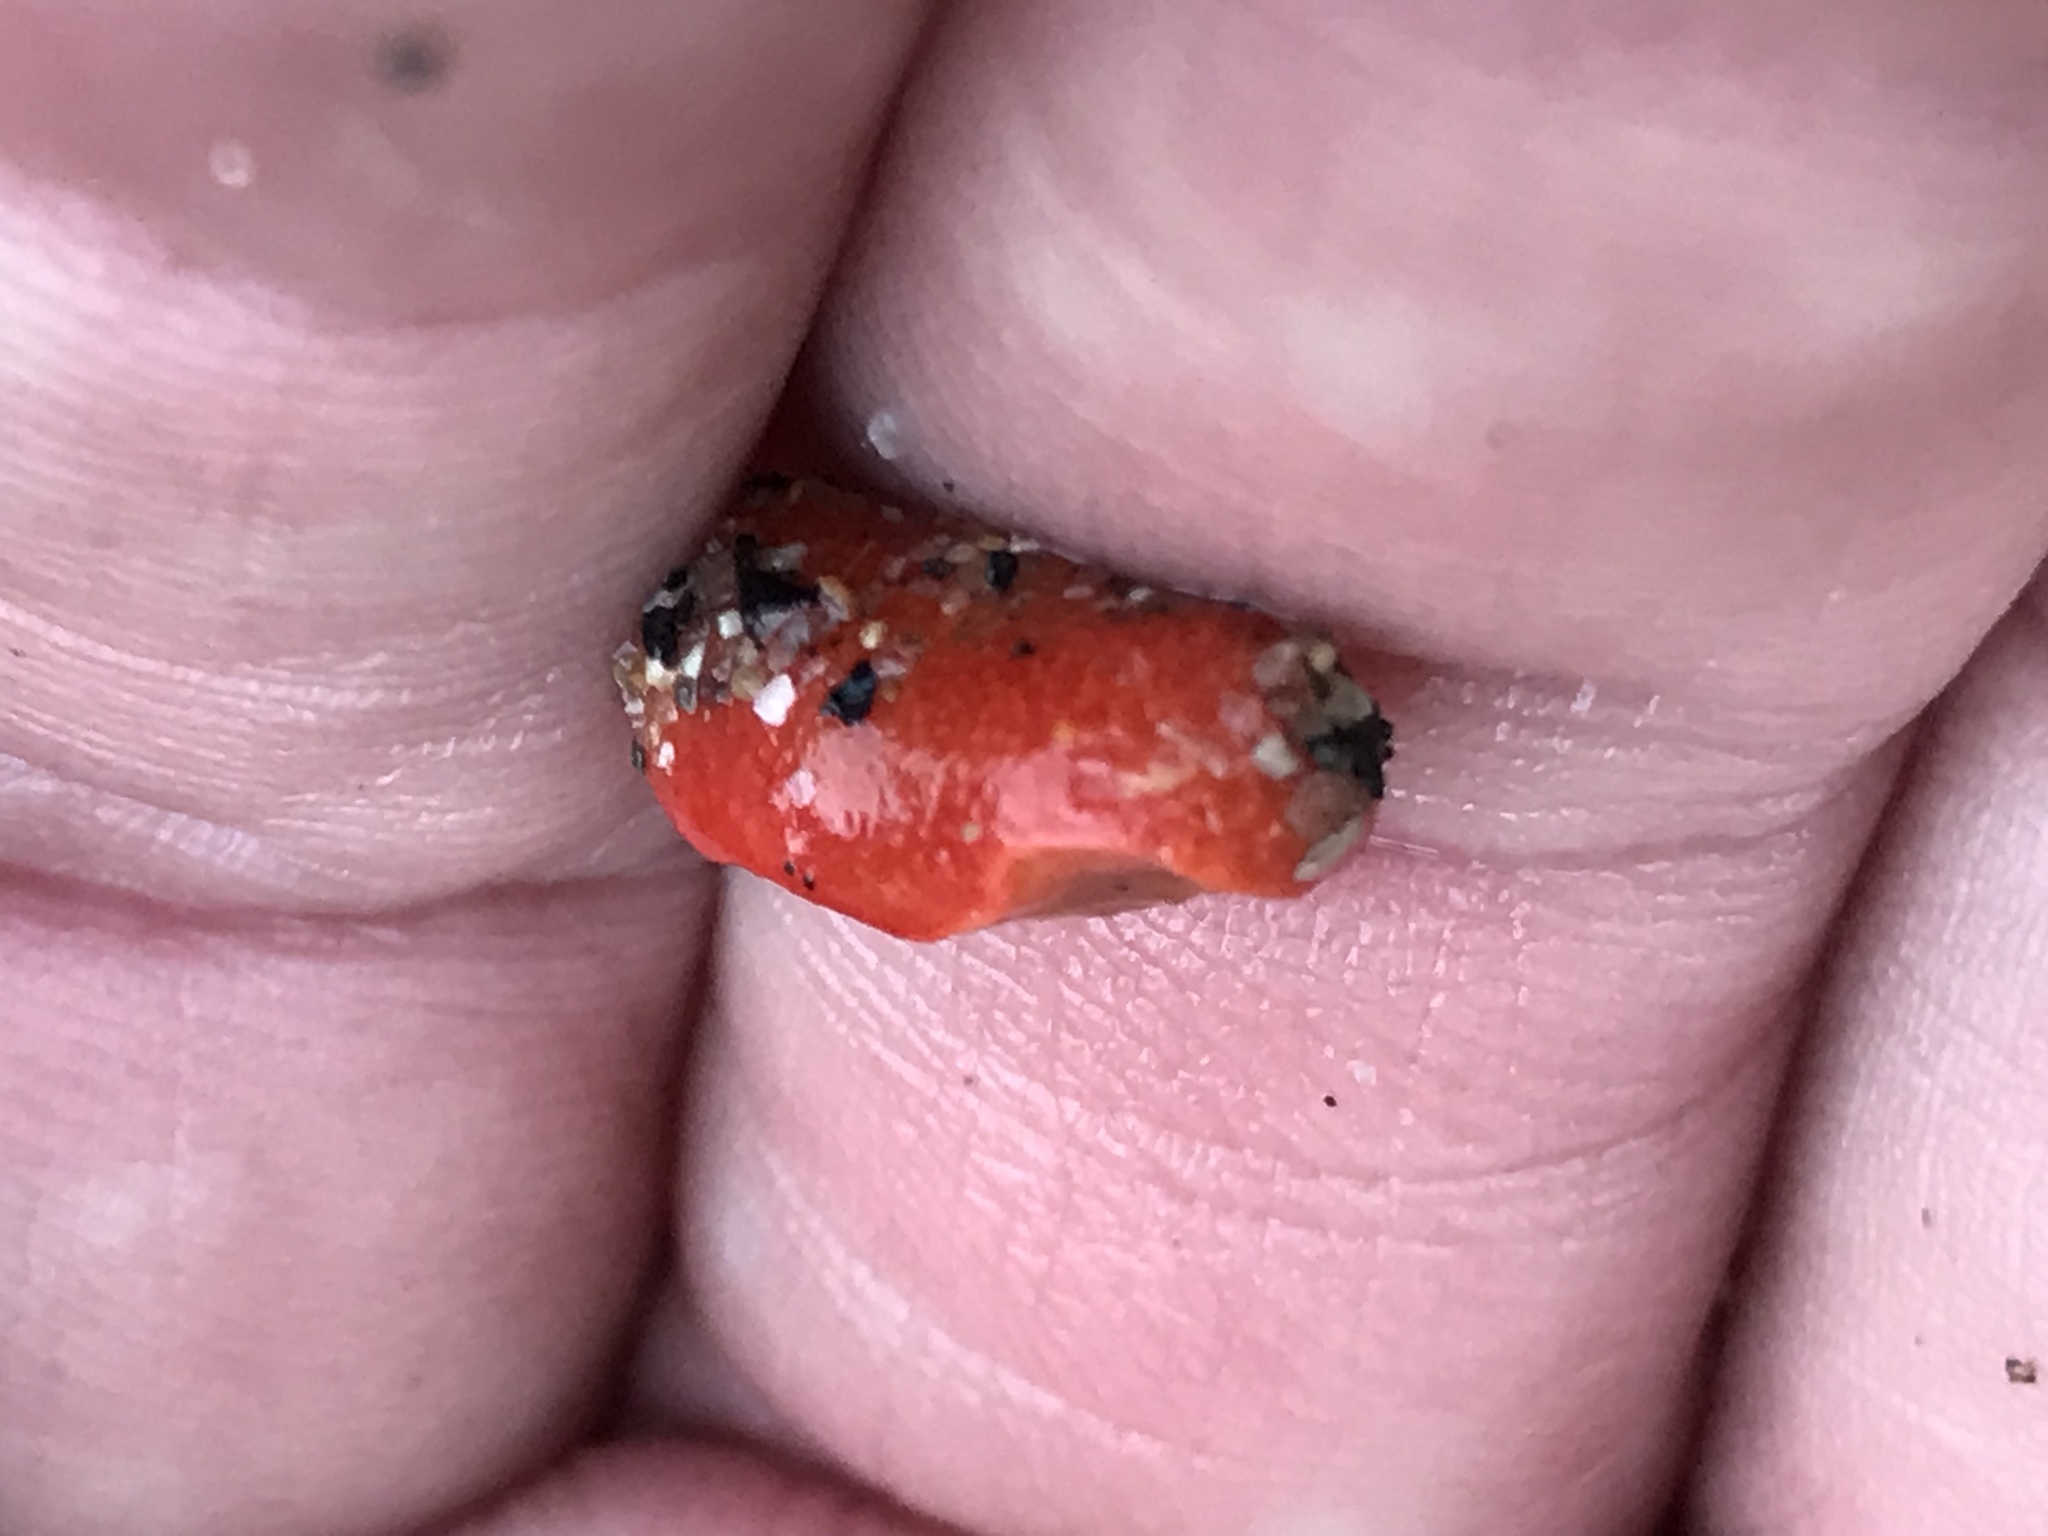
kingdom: Animalia
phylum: Echinodermata
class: Holothuroidea
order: Dendrochirotida
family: Psolidae
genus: Lissothuria
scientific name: Lissothuria nutriens
